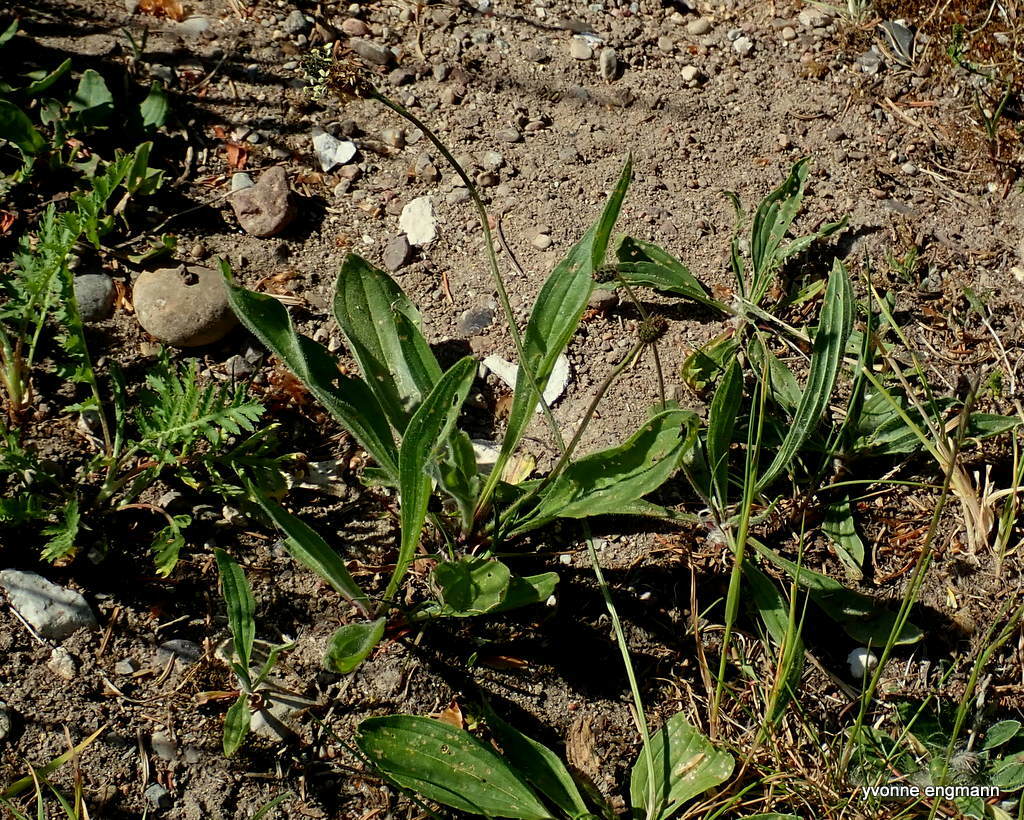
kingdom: Plantae
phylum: Tracheophyta
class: Magnoliopsida
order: Lamiales
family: Plantaginaceae
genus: Plantago
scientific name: Plantago lanceolata
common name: Ribwort plantain
